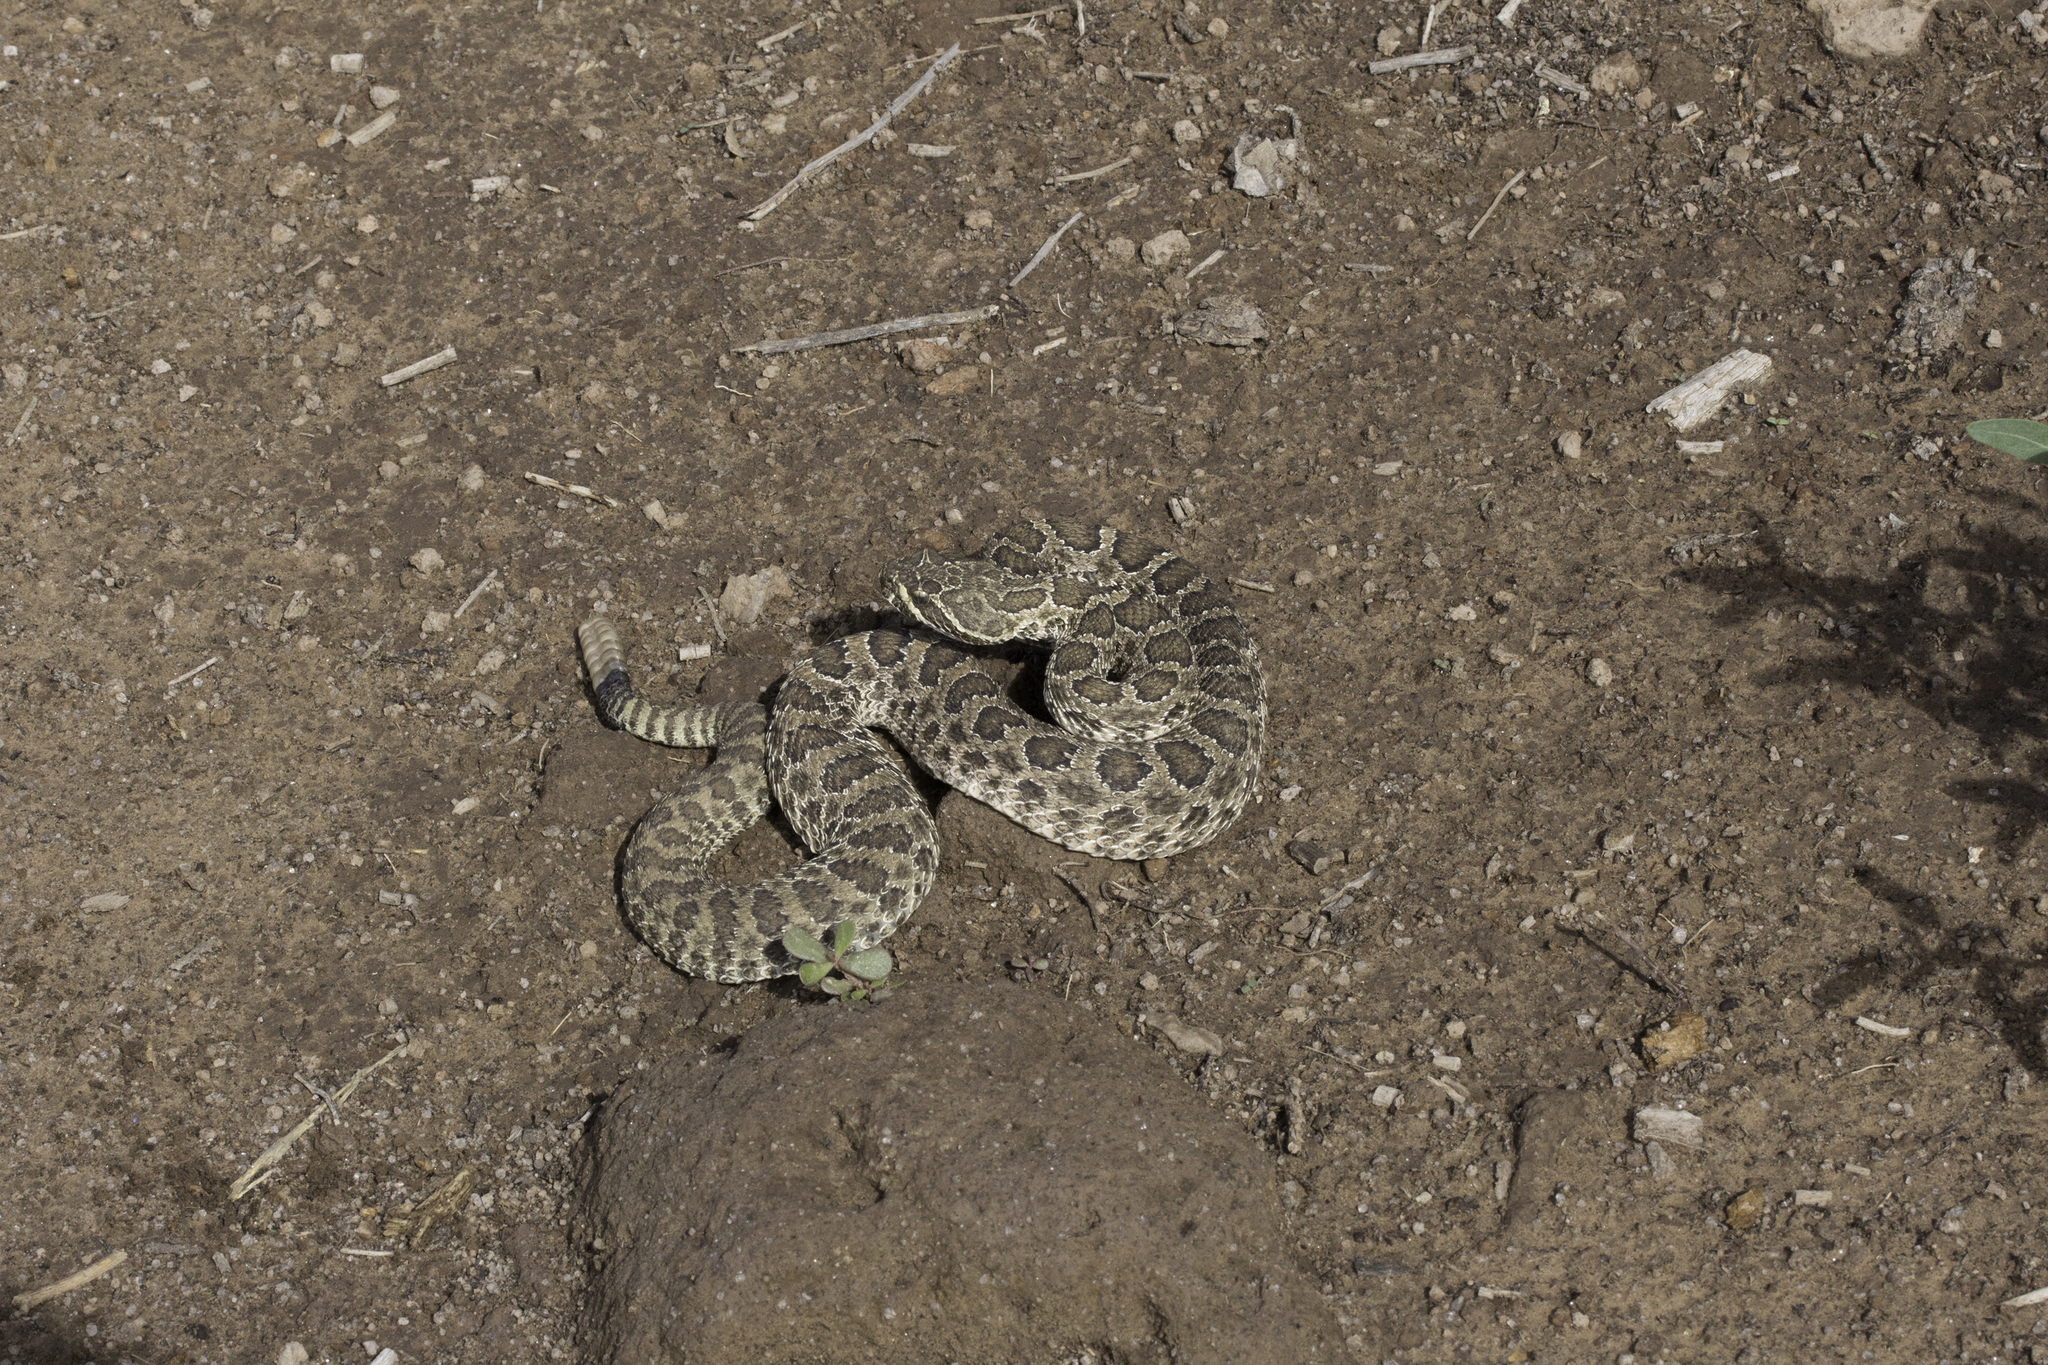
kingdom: Animalia
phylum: Chordata
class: Squamata
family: Viperidae
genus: Crotalus
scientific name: Crotalus viridis
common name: Prairie rattlesnake
